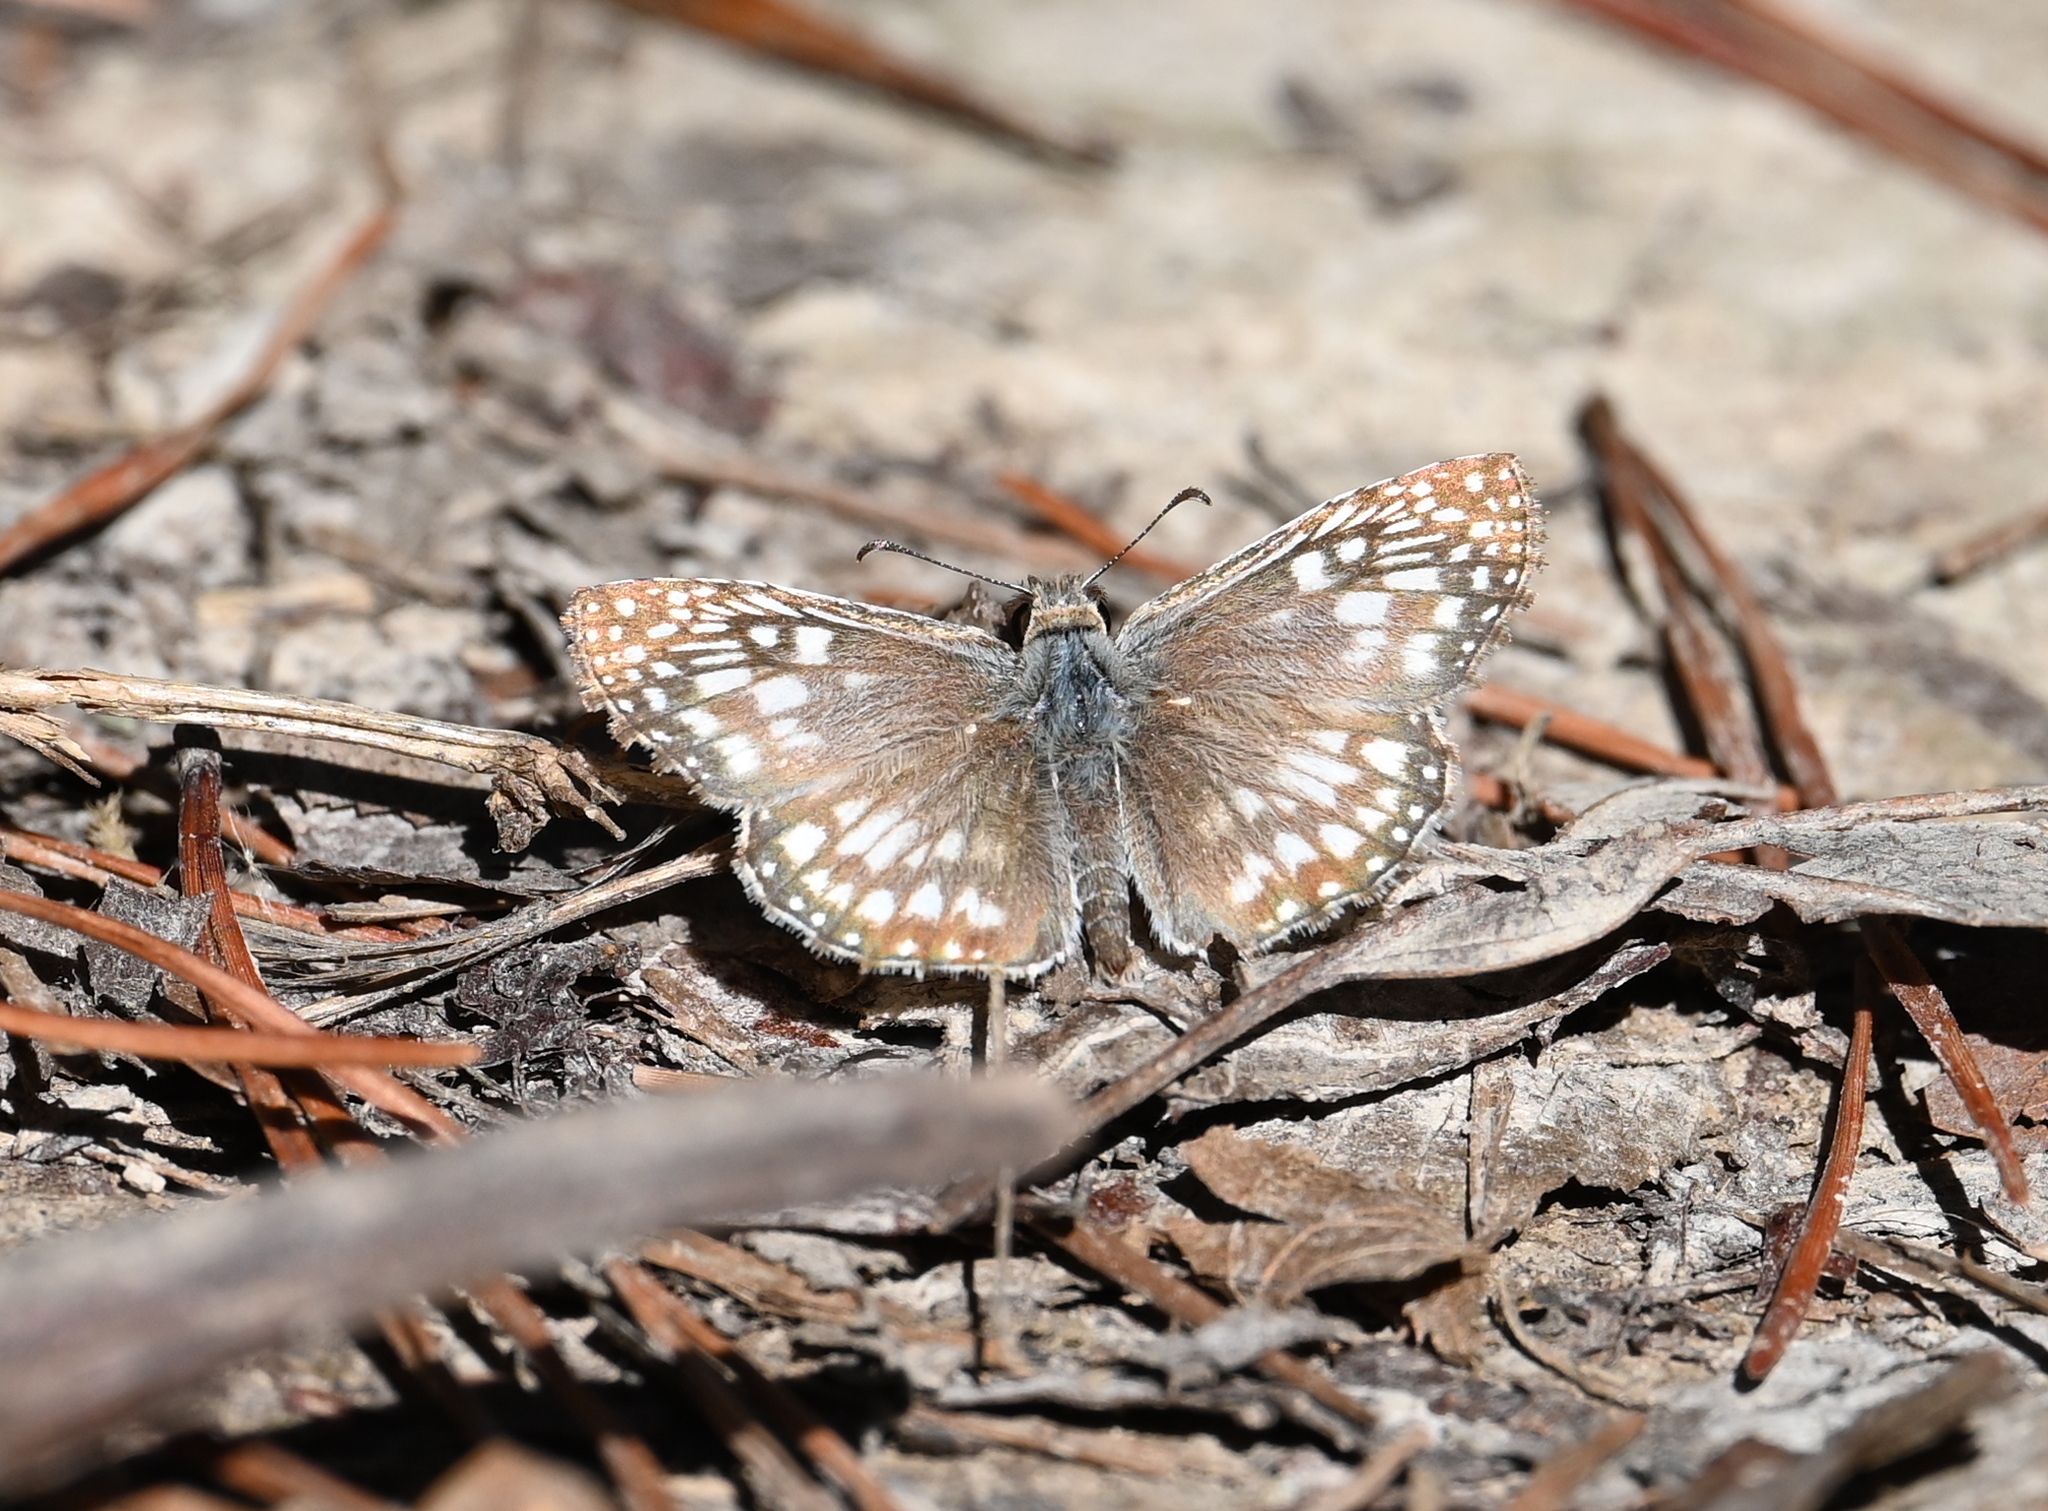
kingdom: Animalia
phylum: Arthropoda
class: Insecta
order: Lepidoptera
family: Hesperiidae
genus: Pyrgus
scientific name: Pyrgus oileus
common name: Tropical checkered-skipper
